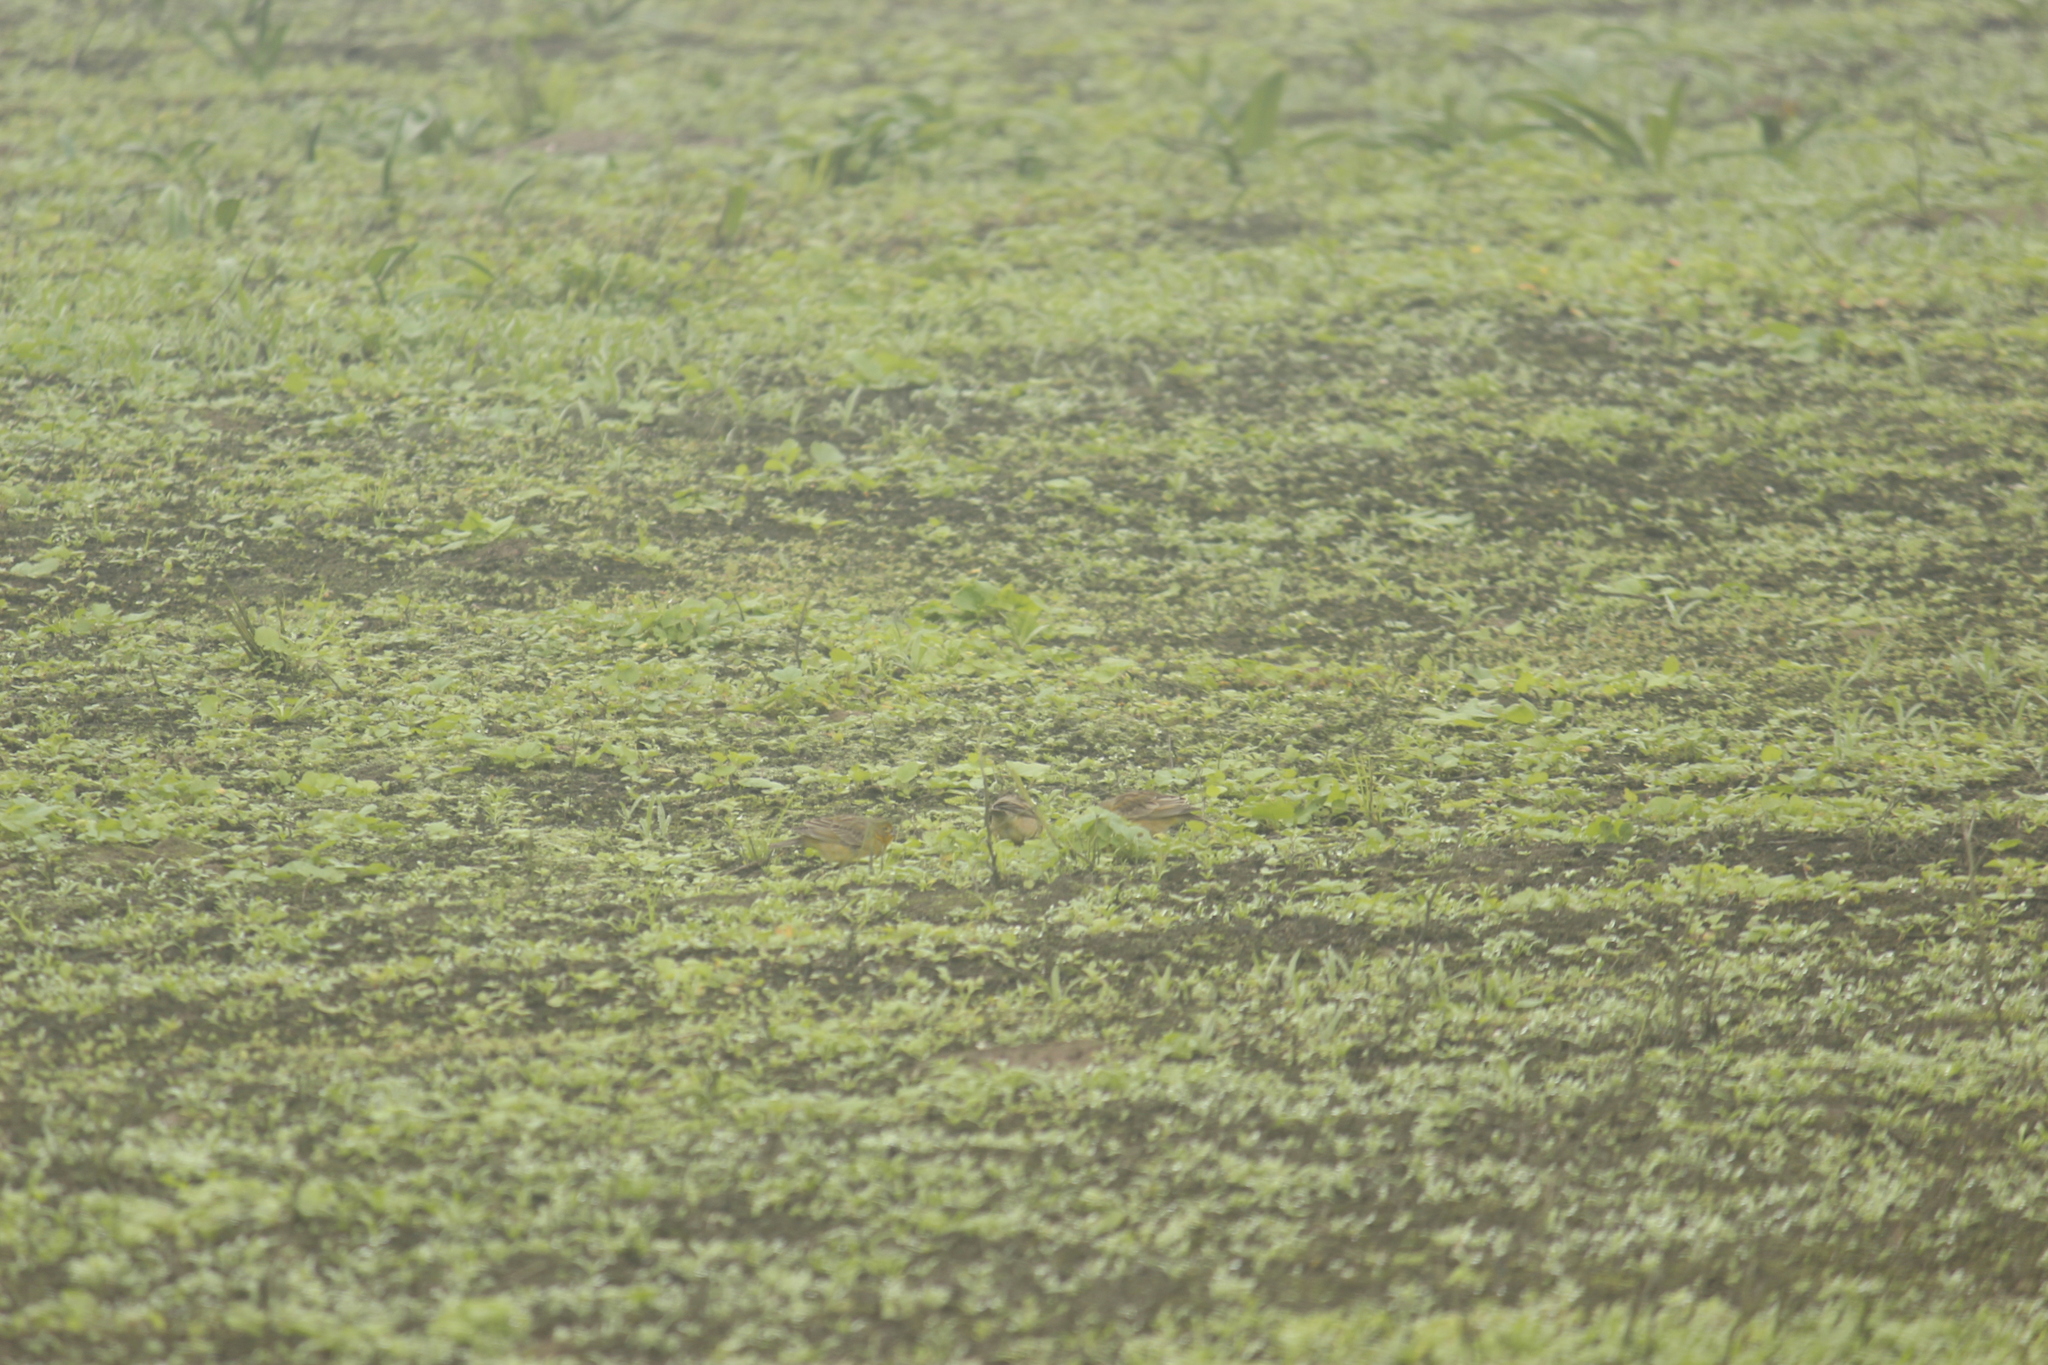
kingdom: Animalia
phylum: Chordata
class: Aves
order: Passeriformes
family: Thraupidae
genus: Sicalis
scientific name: Sicalis raimondii
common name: Raimondi's yellow finch
